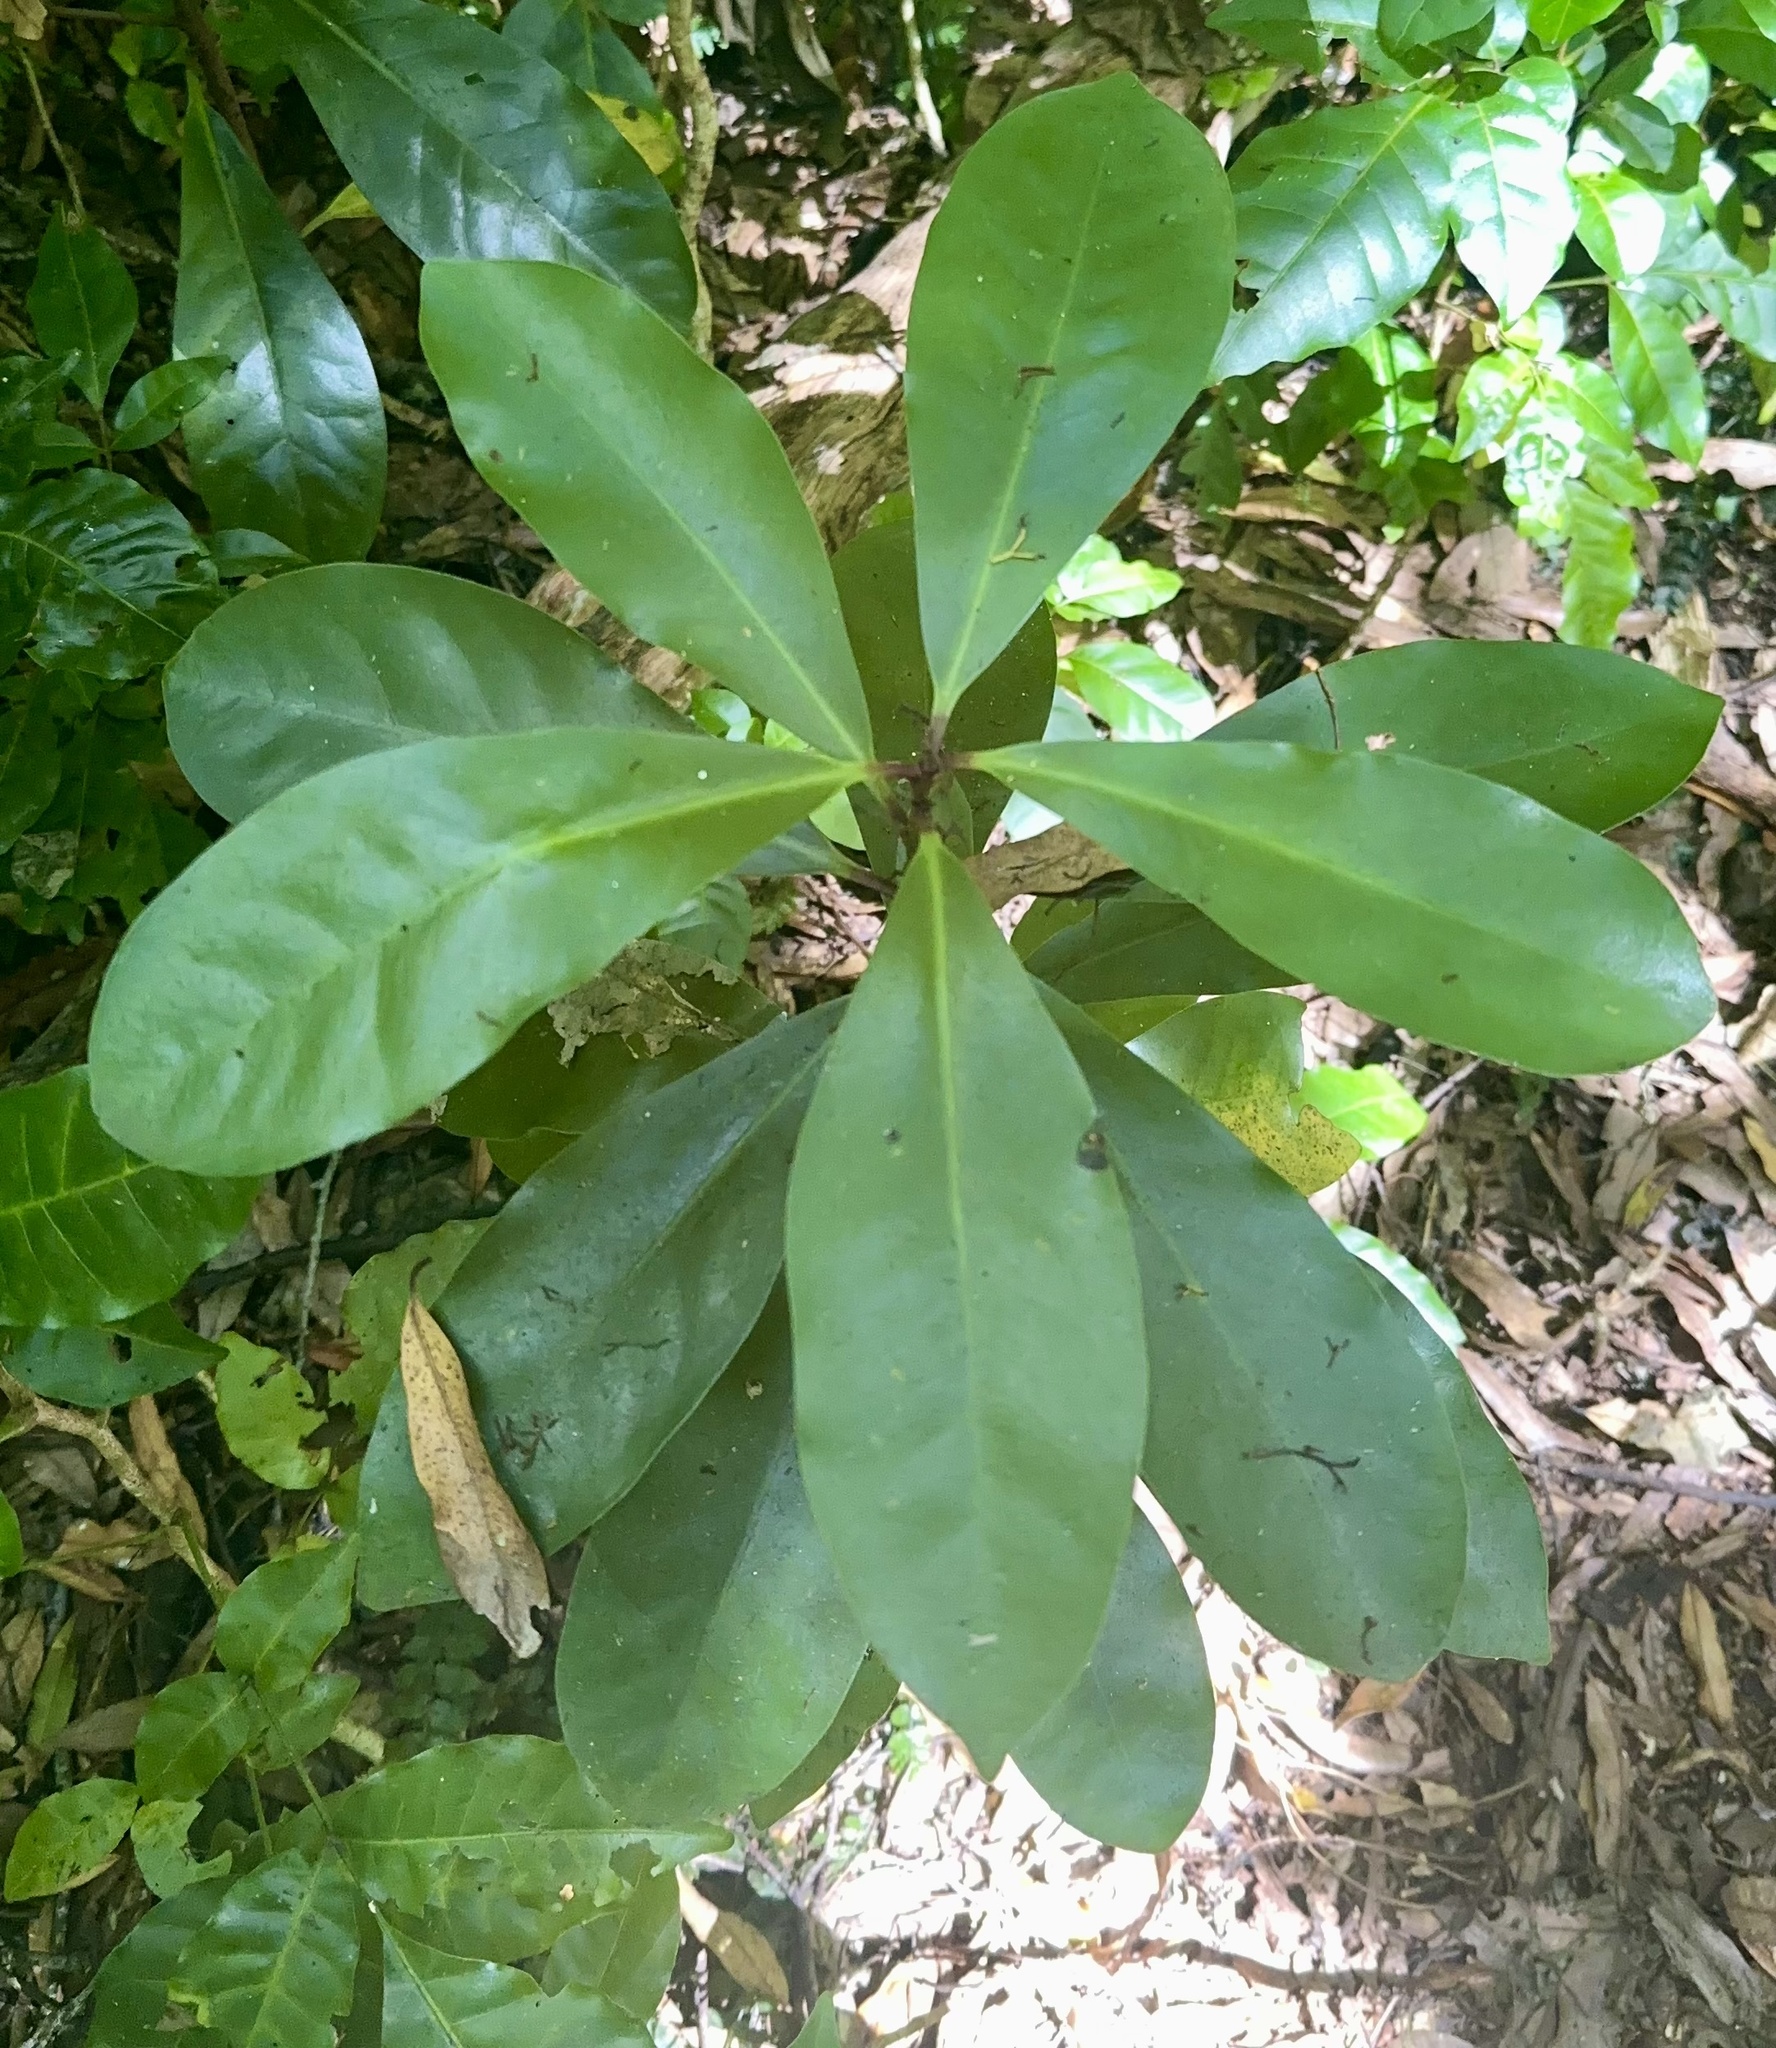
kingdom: Plantae
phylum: Tracheophyta
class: Magnoliopsida
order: Cucurbitales
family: Corynocarpaceae
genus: Corynocarpus
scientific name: Corynocarpus laevigatus
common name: New zealand laurel
